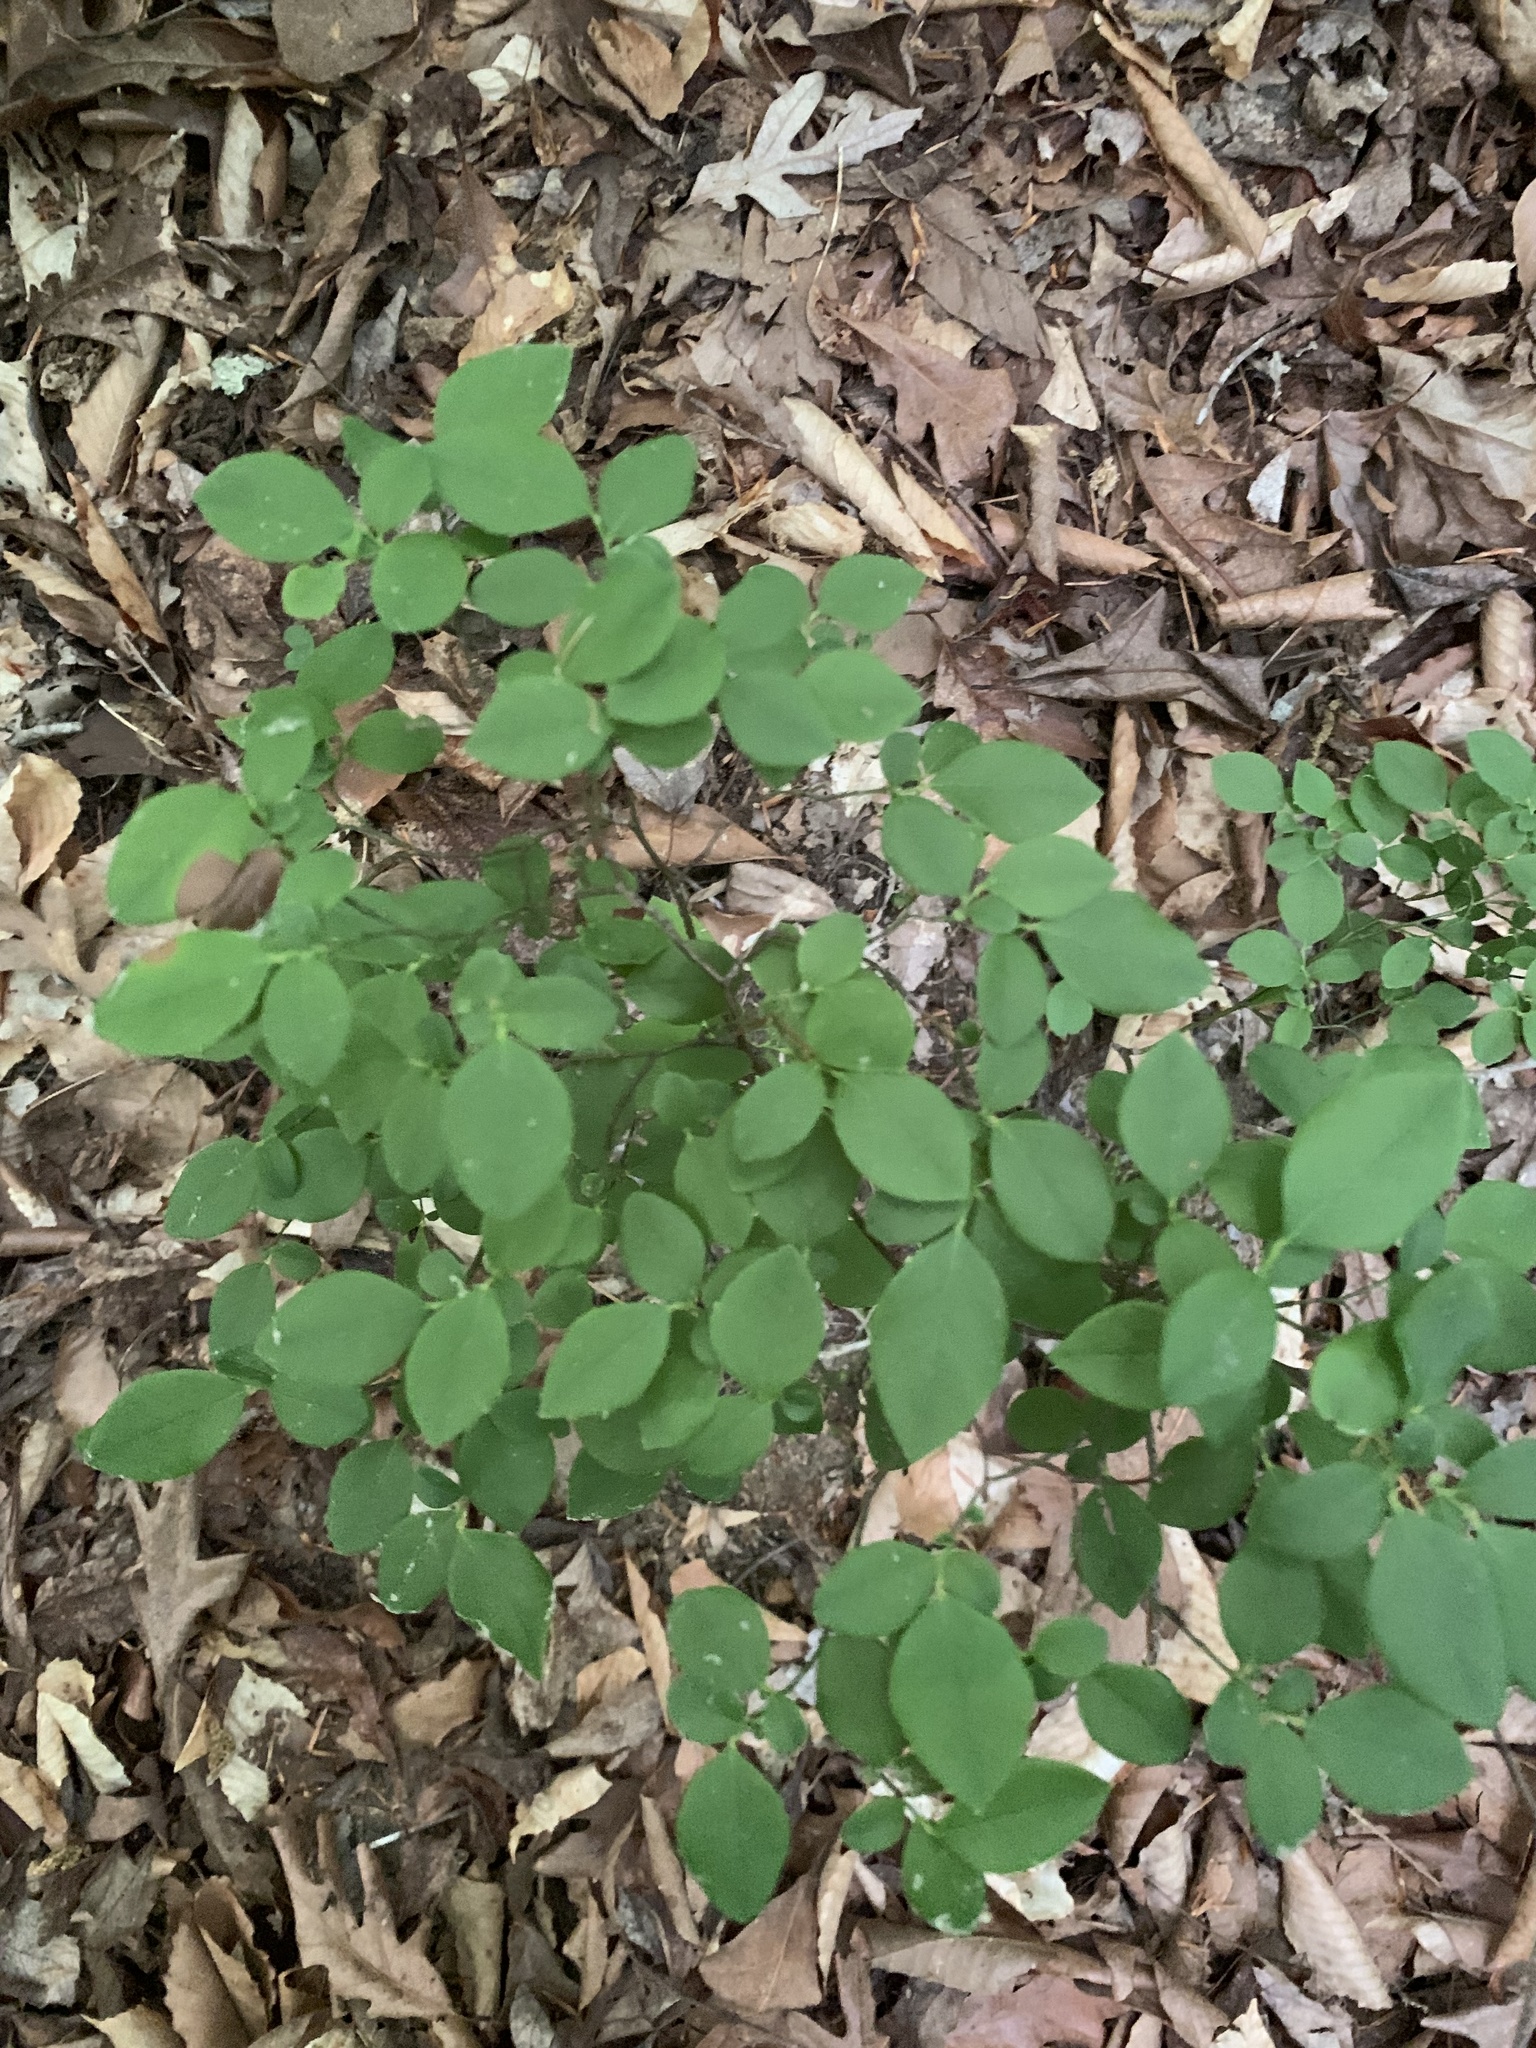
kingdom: Plantae
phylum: Tracheophyta
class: Magnoliopsida
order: Ericales
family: Ericaceae
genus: Vaccinium
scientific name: Vaccinium pallidum
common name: Blue ridge blueberry
